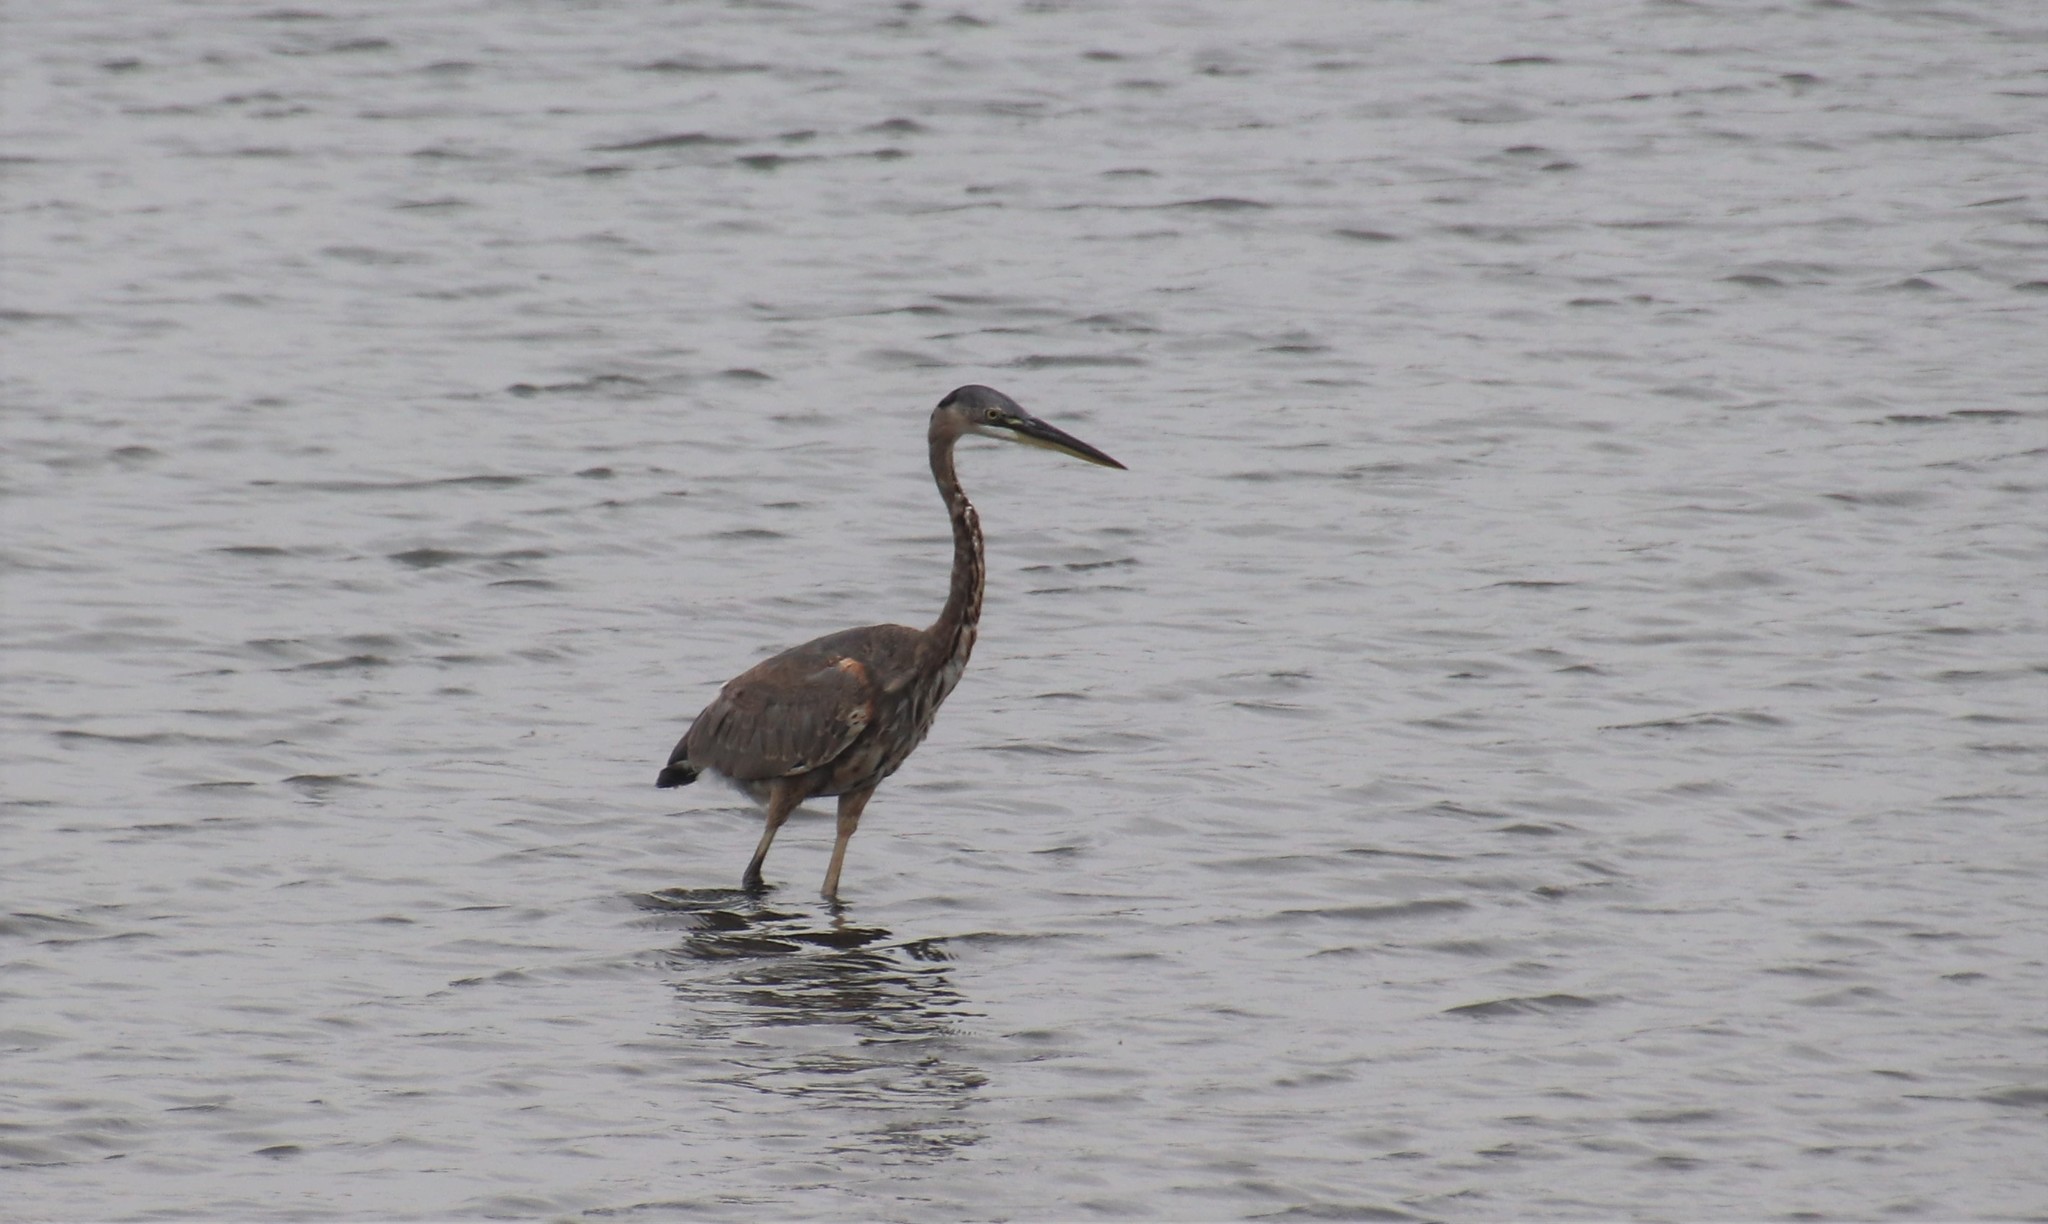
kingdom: Animalia
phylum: Chordata
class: Aves
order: Pelecaniformes
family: Ardeidae
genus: Ardea
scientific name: Ardea herodias
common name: Great blue heron
